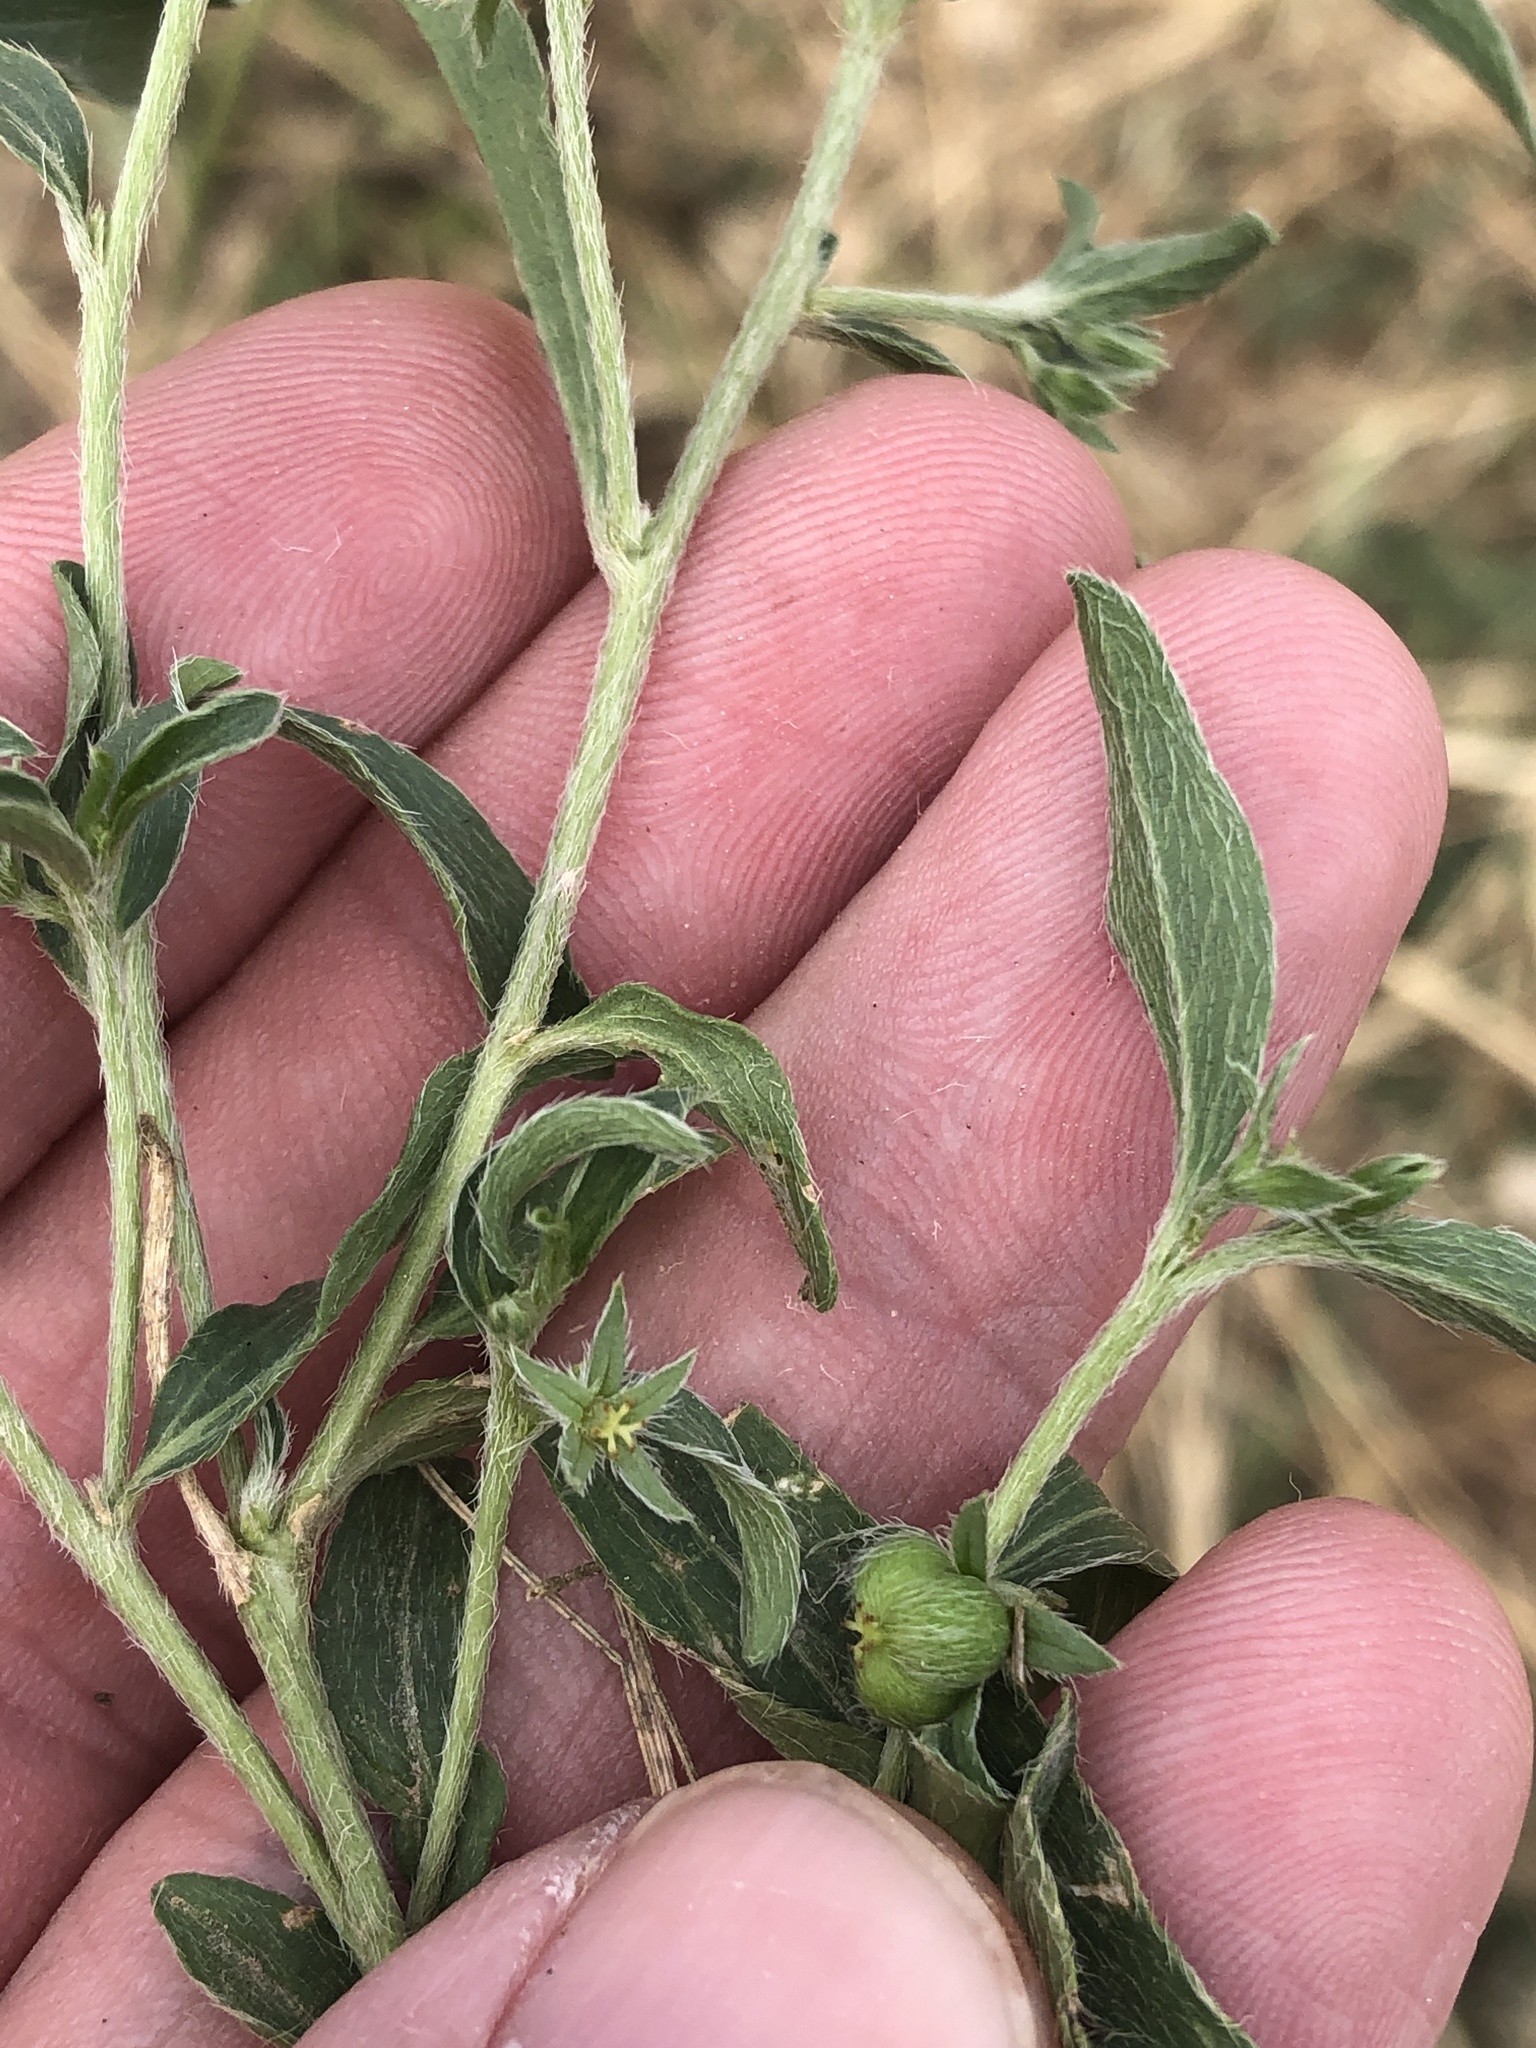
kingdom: Plantae
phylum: Tracheophyta
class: Magnoliopsida
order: Malpighiales
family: Euphorbiaceae
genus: Ditaxis
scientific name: Ditaxis humilis
